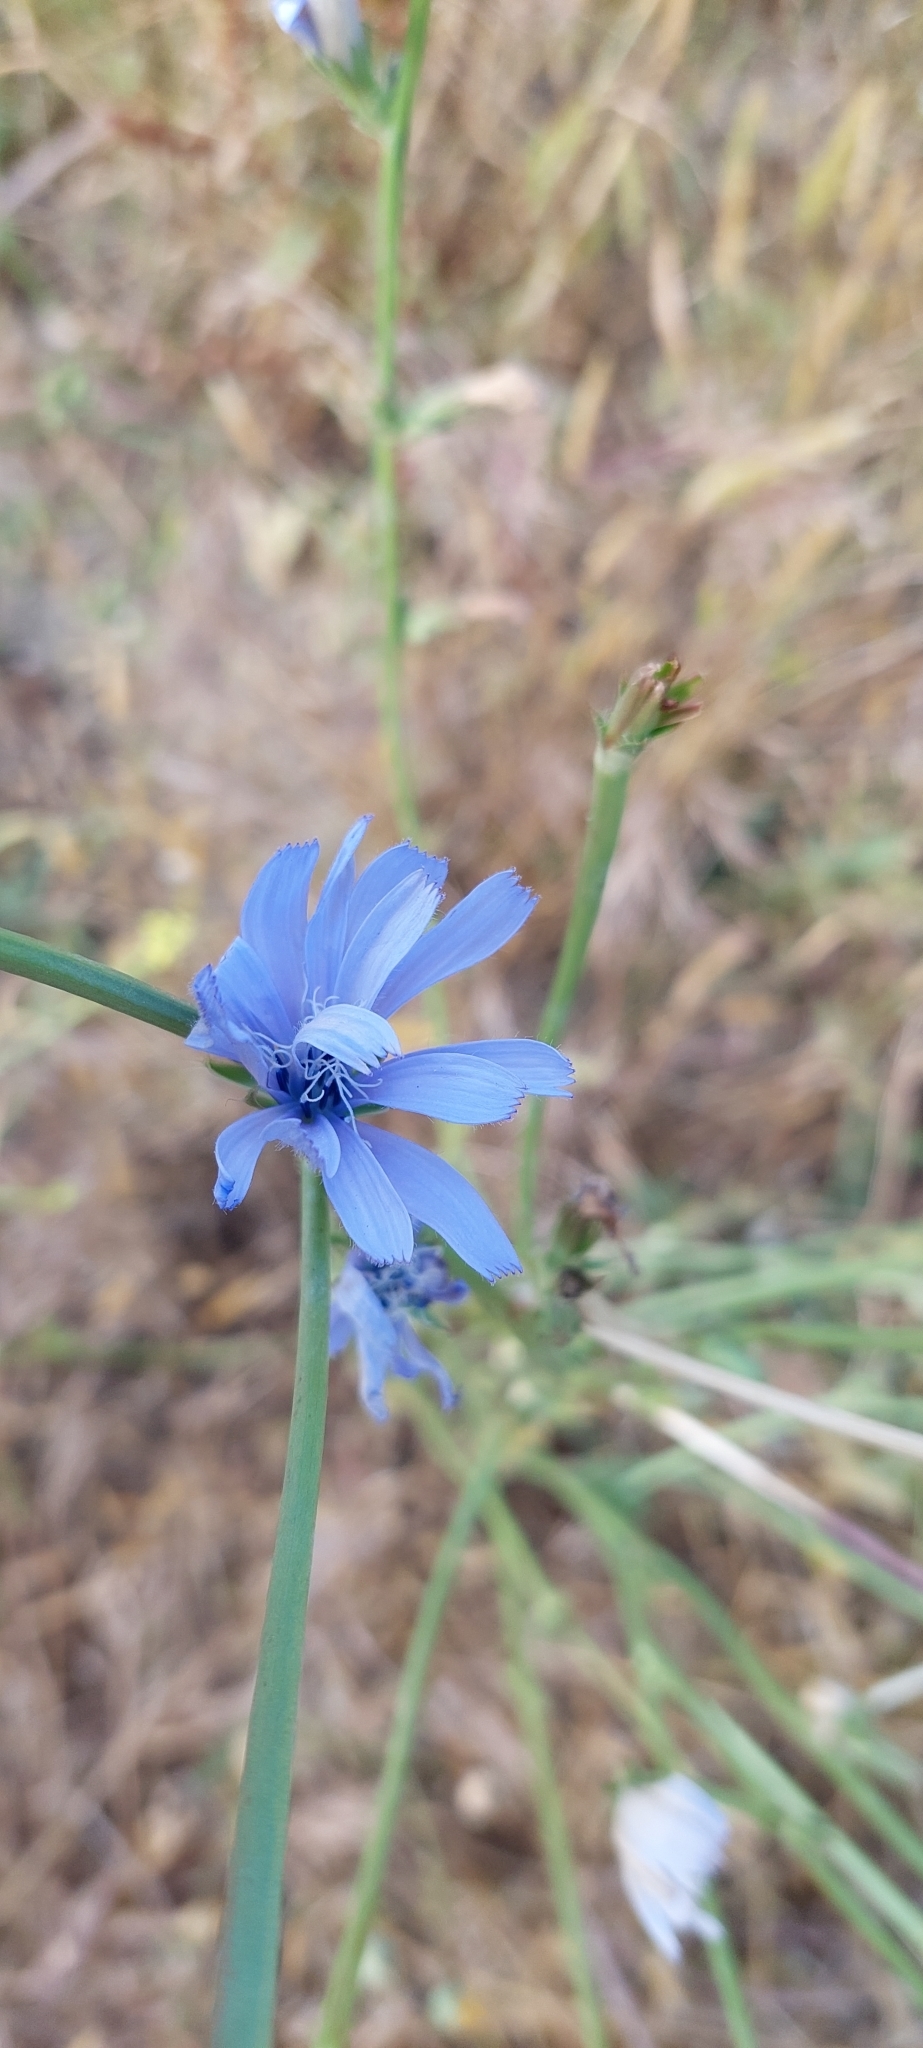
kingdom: Plantae
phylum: Tracheophyta
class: Magnoliopsida
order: Asterales
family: Asteraceae
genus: Cichorium
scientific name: Cichorium intybus
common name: Chicory
